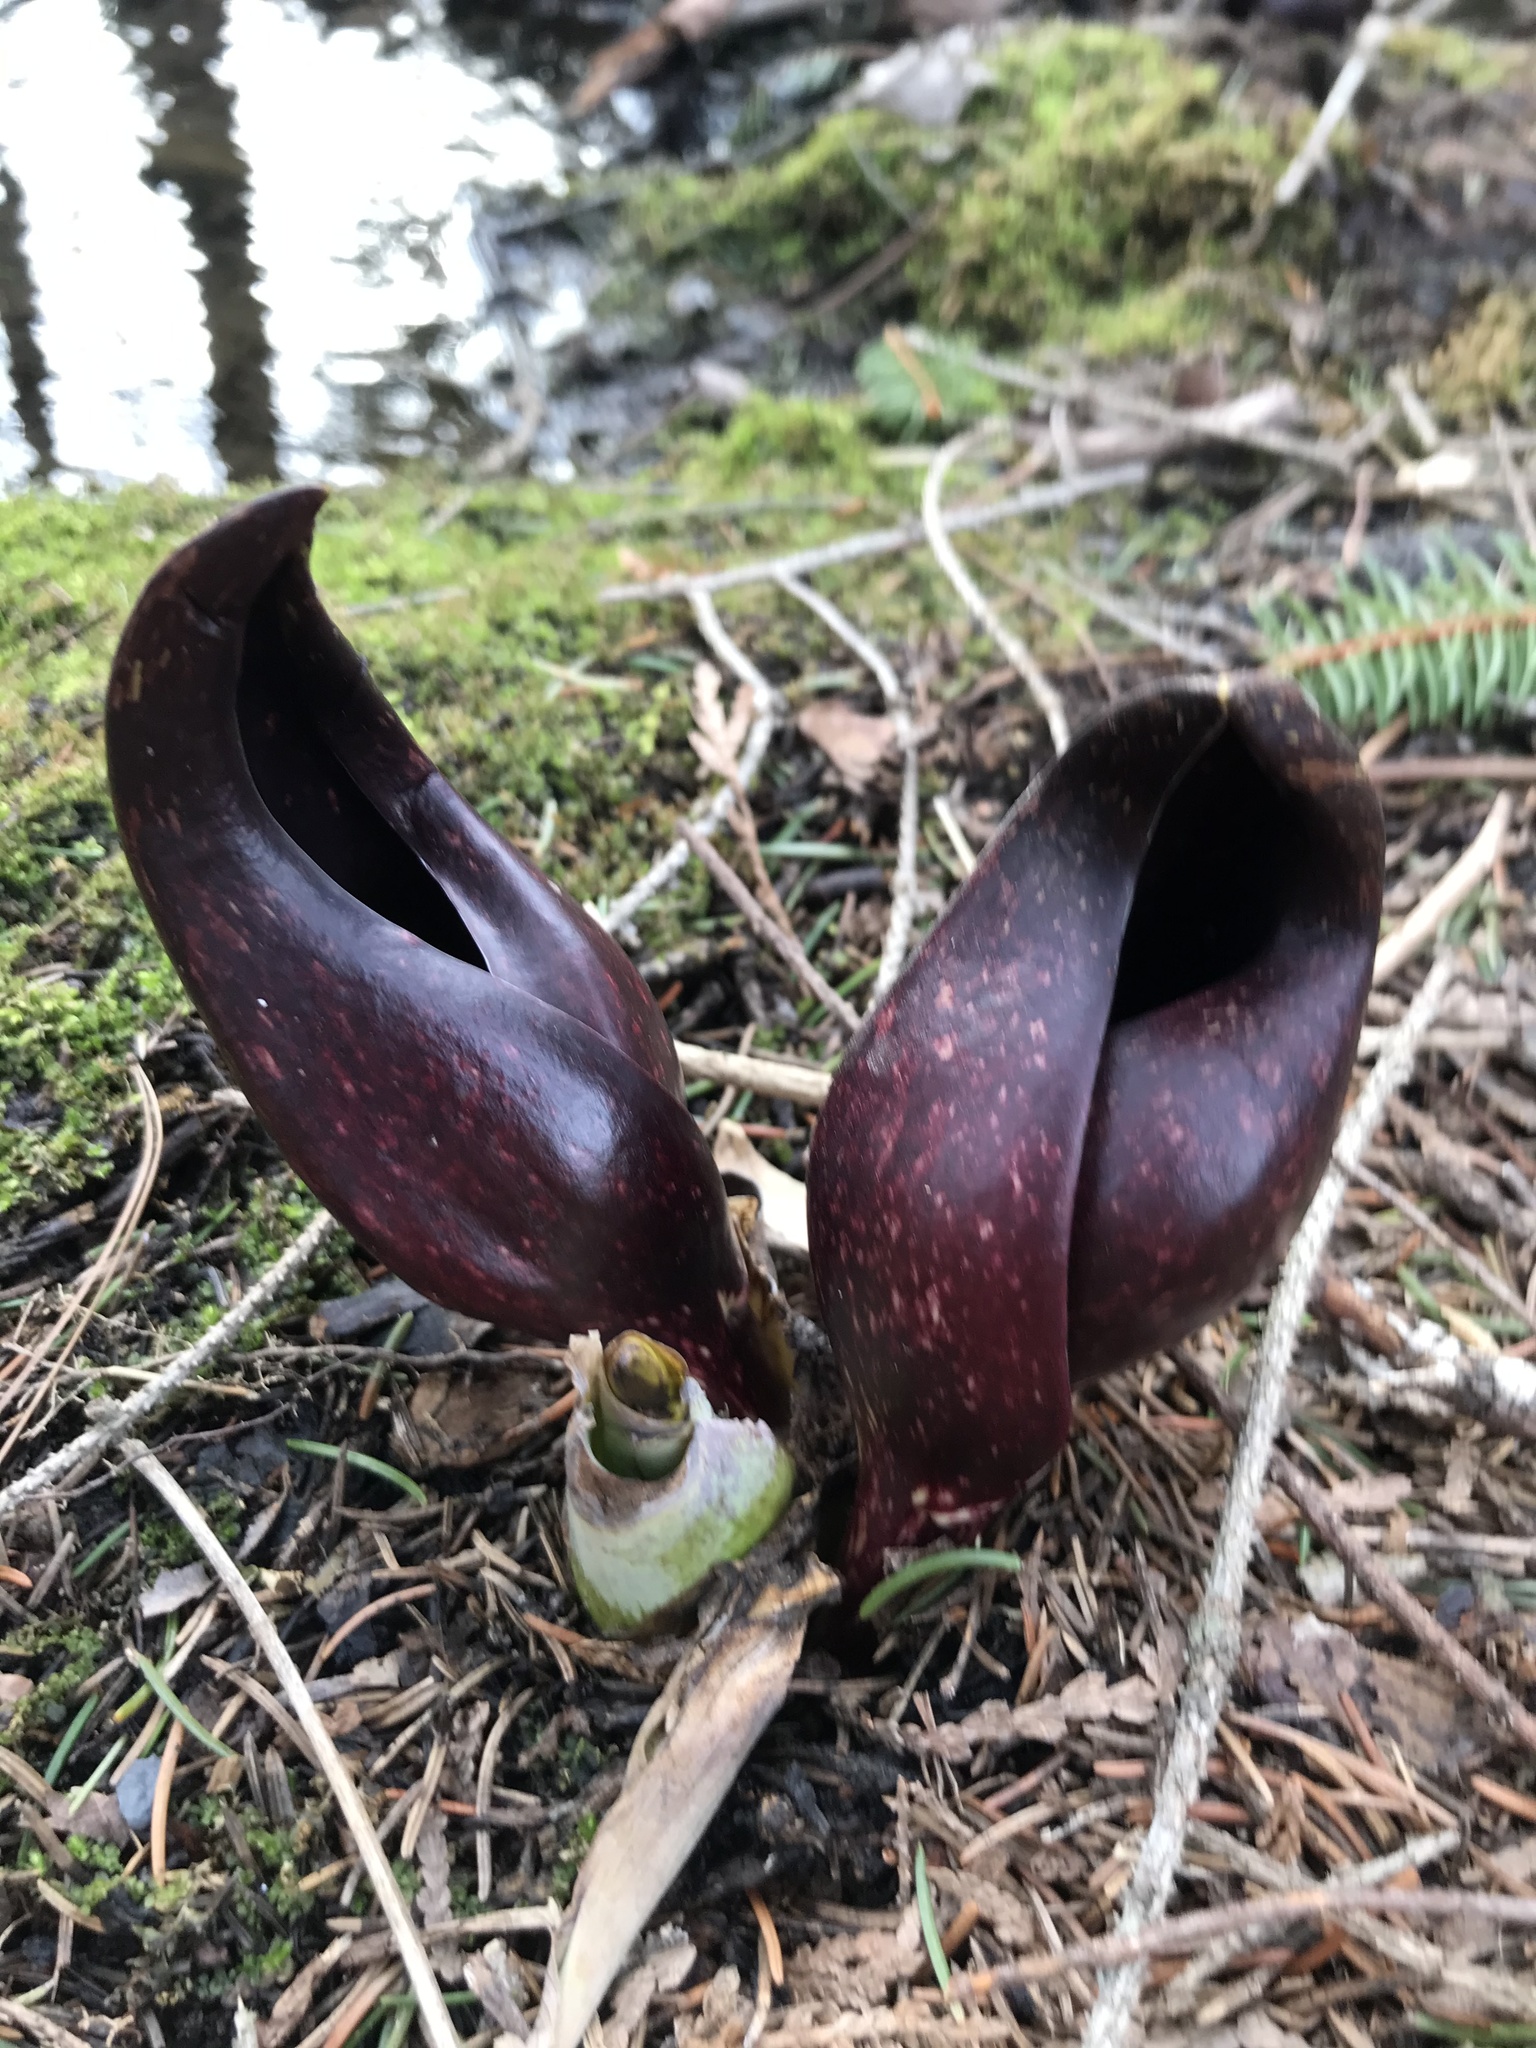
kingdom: Plantae
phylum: Tracheophyta
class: Liliopsida
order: Alismatales
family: Araceae
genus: Symplocarpus
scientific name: Symplocarpus foetidus
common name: Eastern skunk cabbage
